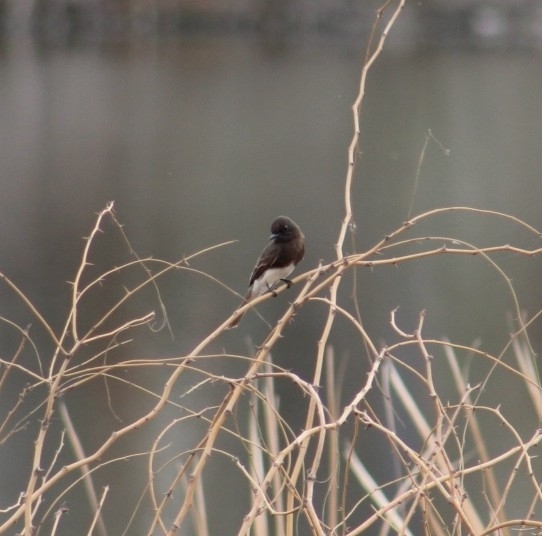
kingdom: Animalia
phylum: Chordata
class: Aves
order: Passeriformes
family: Tyrannidae
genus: Sayornis
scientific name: Sayornis nigricans
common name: Black phoebe
